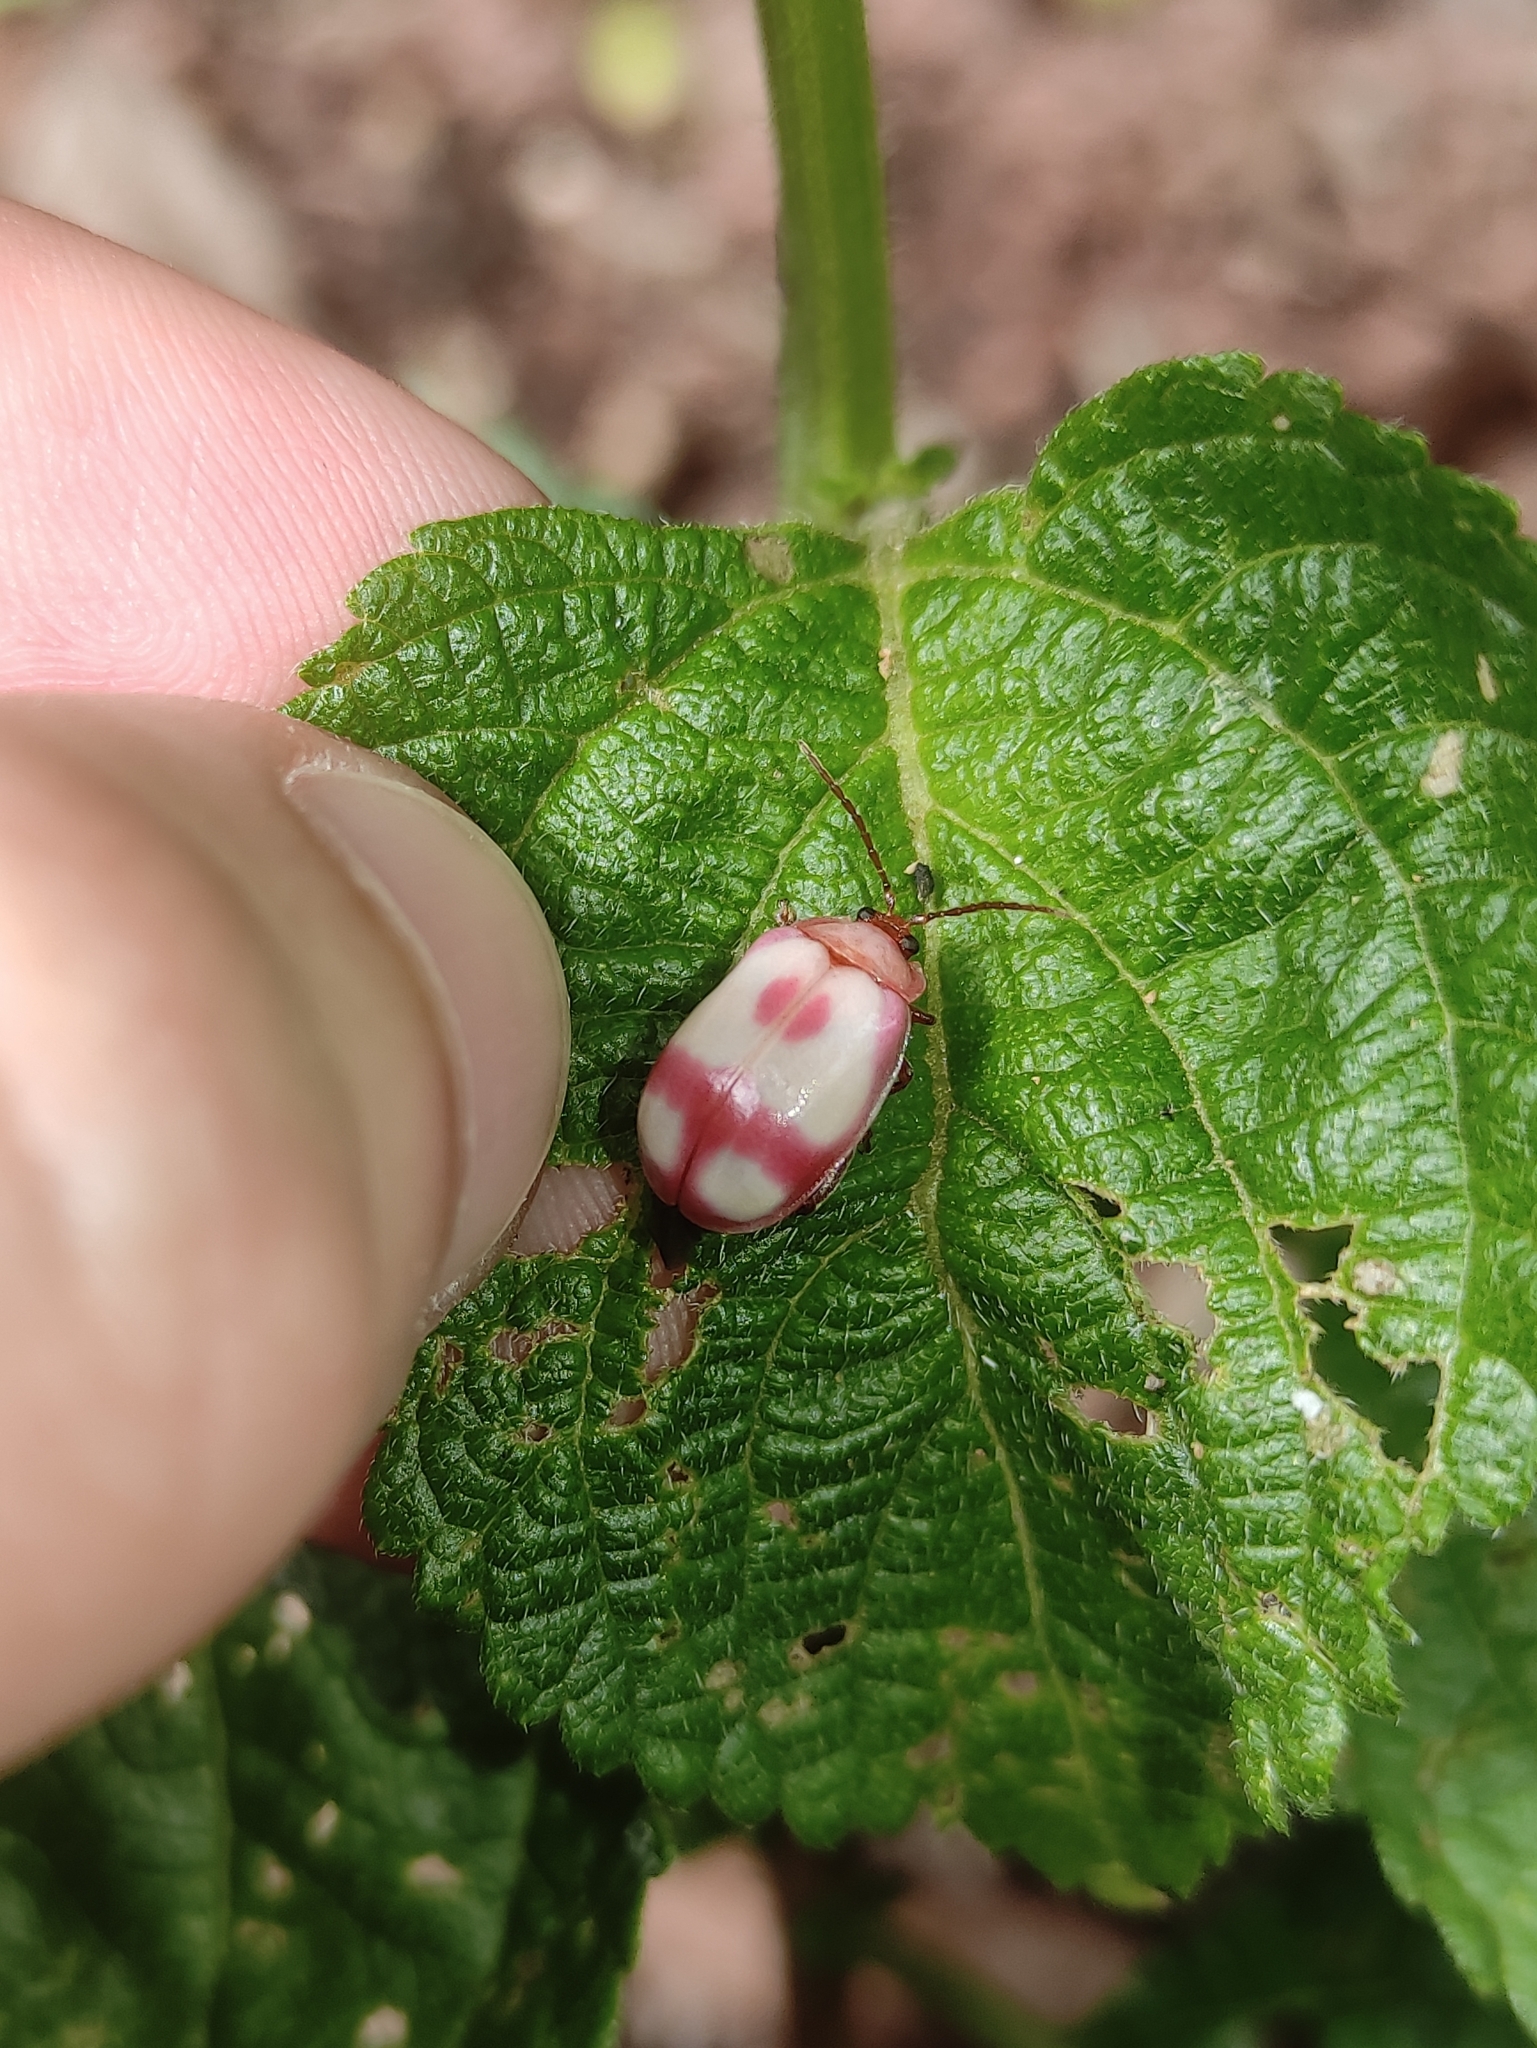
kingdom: Animalia
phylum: Arthropoda
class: Insecta
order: Coleoptera
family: Chrysomelidae
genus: Wanderbiltiana
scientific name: Wanderbiltiana
